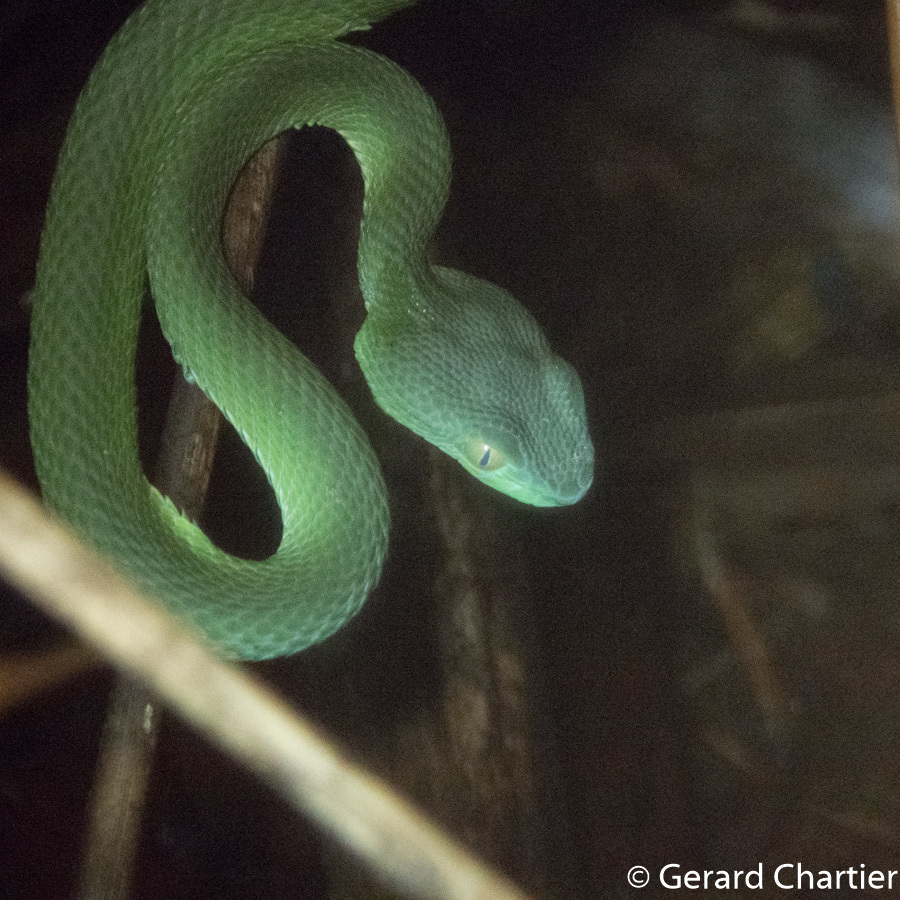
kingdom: Animalia
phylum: Chordata
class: Squamata
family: Viperidae
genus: Trimeresurus
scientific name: Trimeresurus cardamomensis
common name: Cardamom mountains green pitviper
